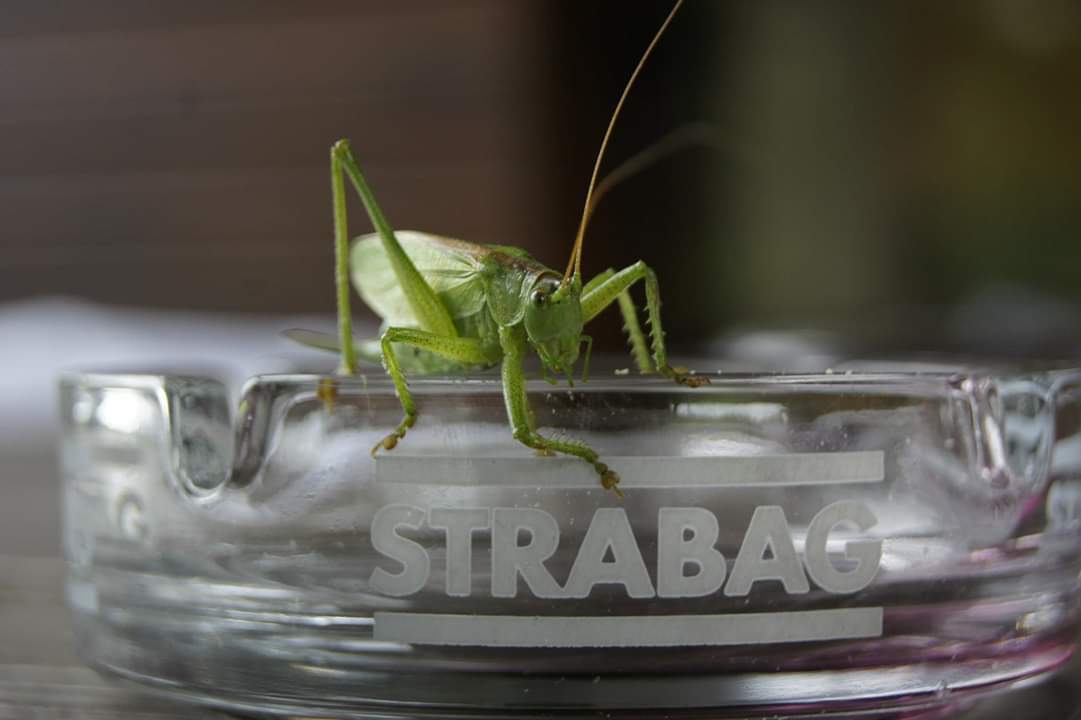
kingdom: Animalia
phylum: Arthropoda
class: Insecta
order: Orthoptera
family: Tettigoniidae
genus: Tettigonia
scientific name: Tettigonia cantans
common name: Upland green bush-cricket
